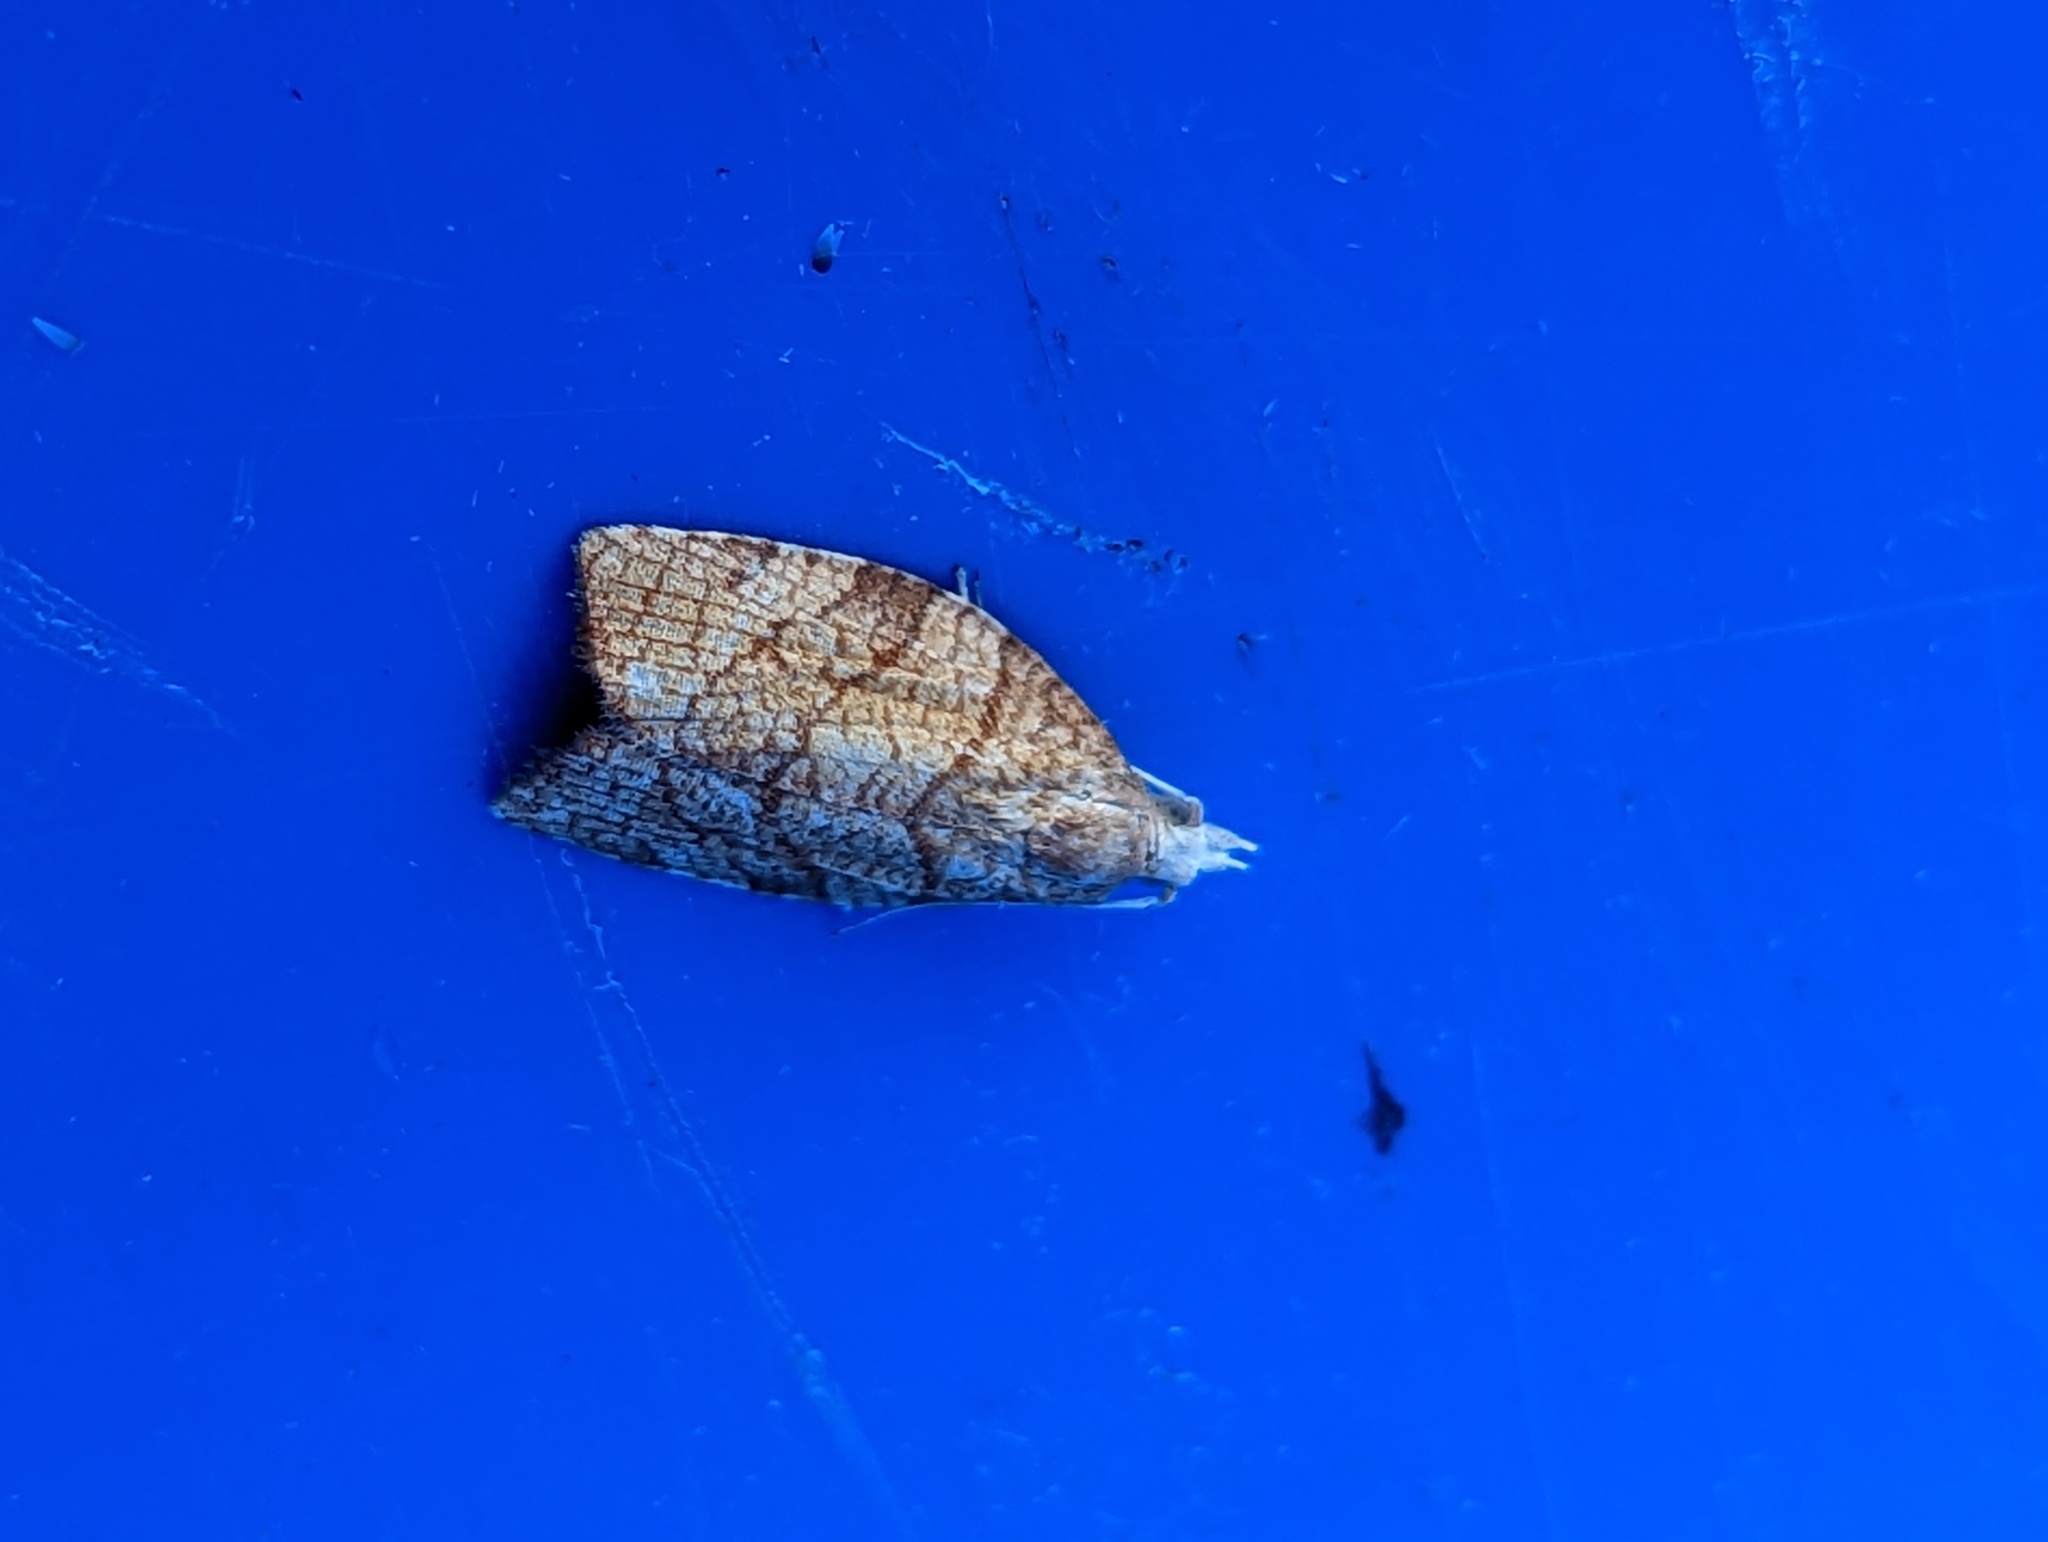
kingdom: Animalia
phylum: Arthropoda
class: Insecta
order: Lepidoptera
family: Tortricidae
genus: Pandemis
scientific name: Pandemis corylana
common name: Chequered fruit-tree tortrix
